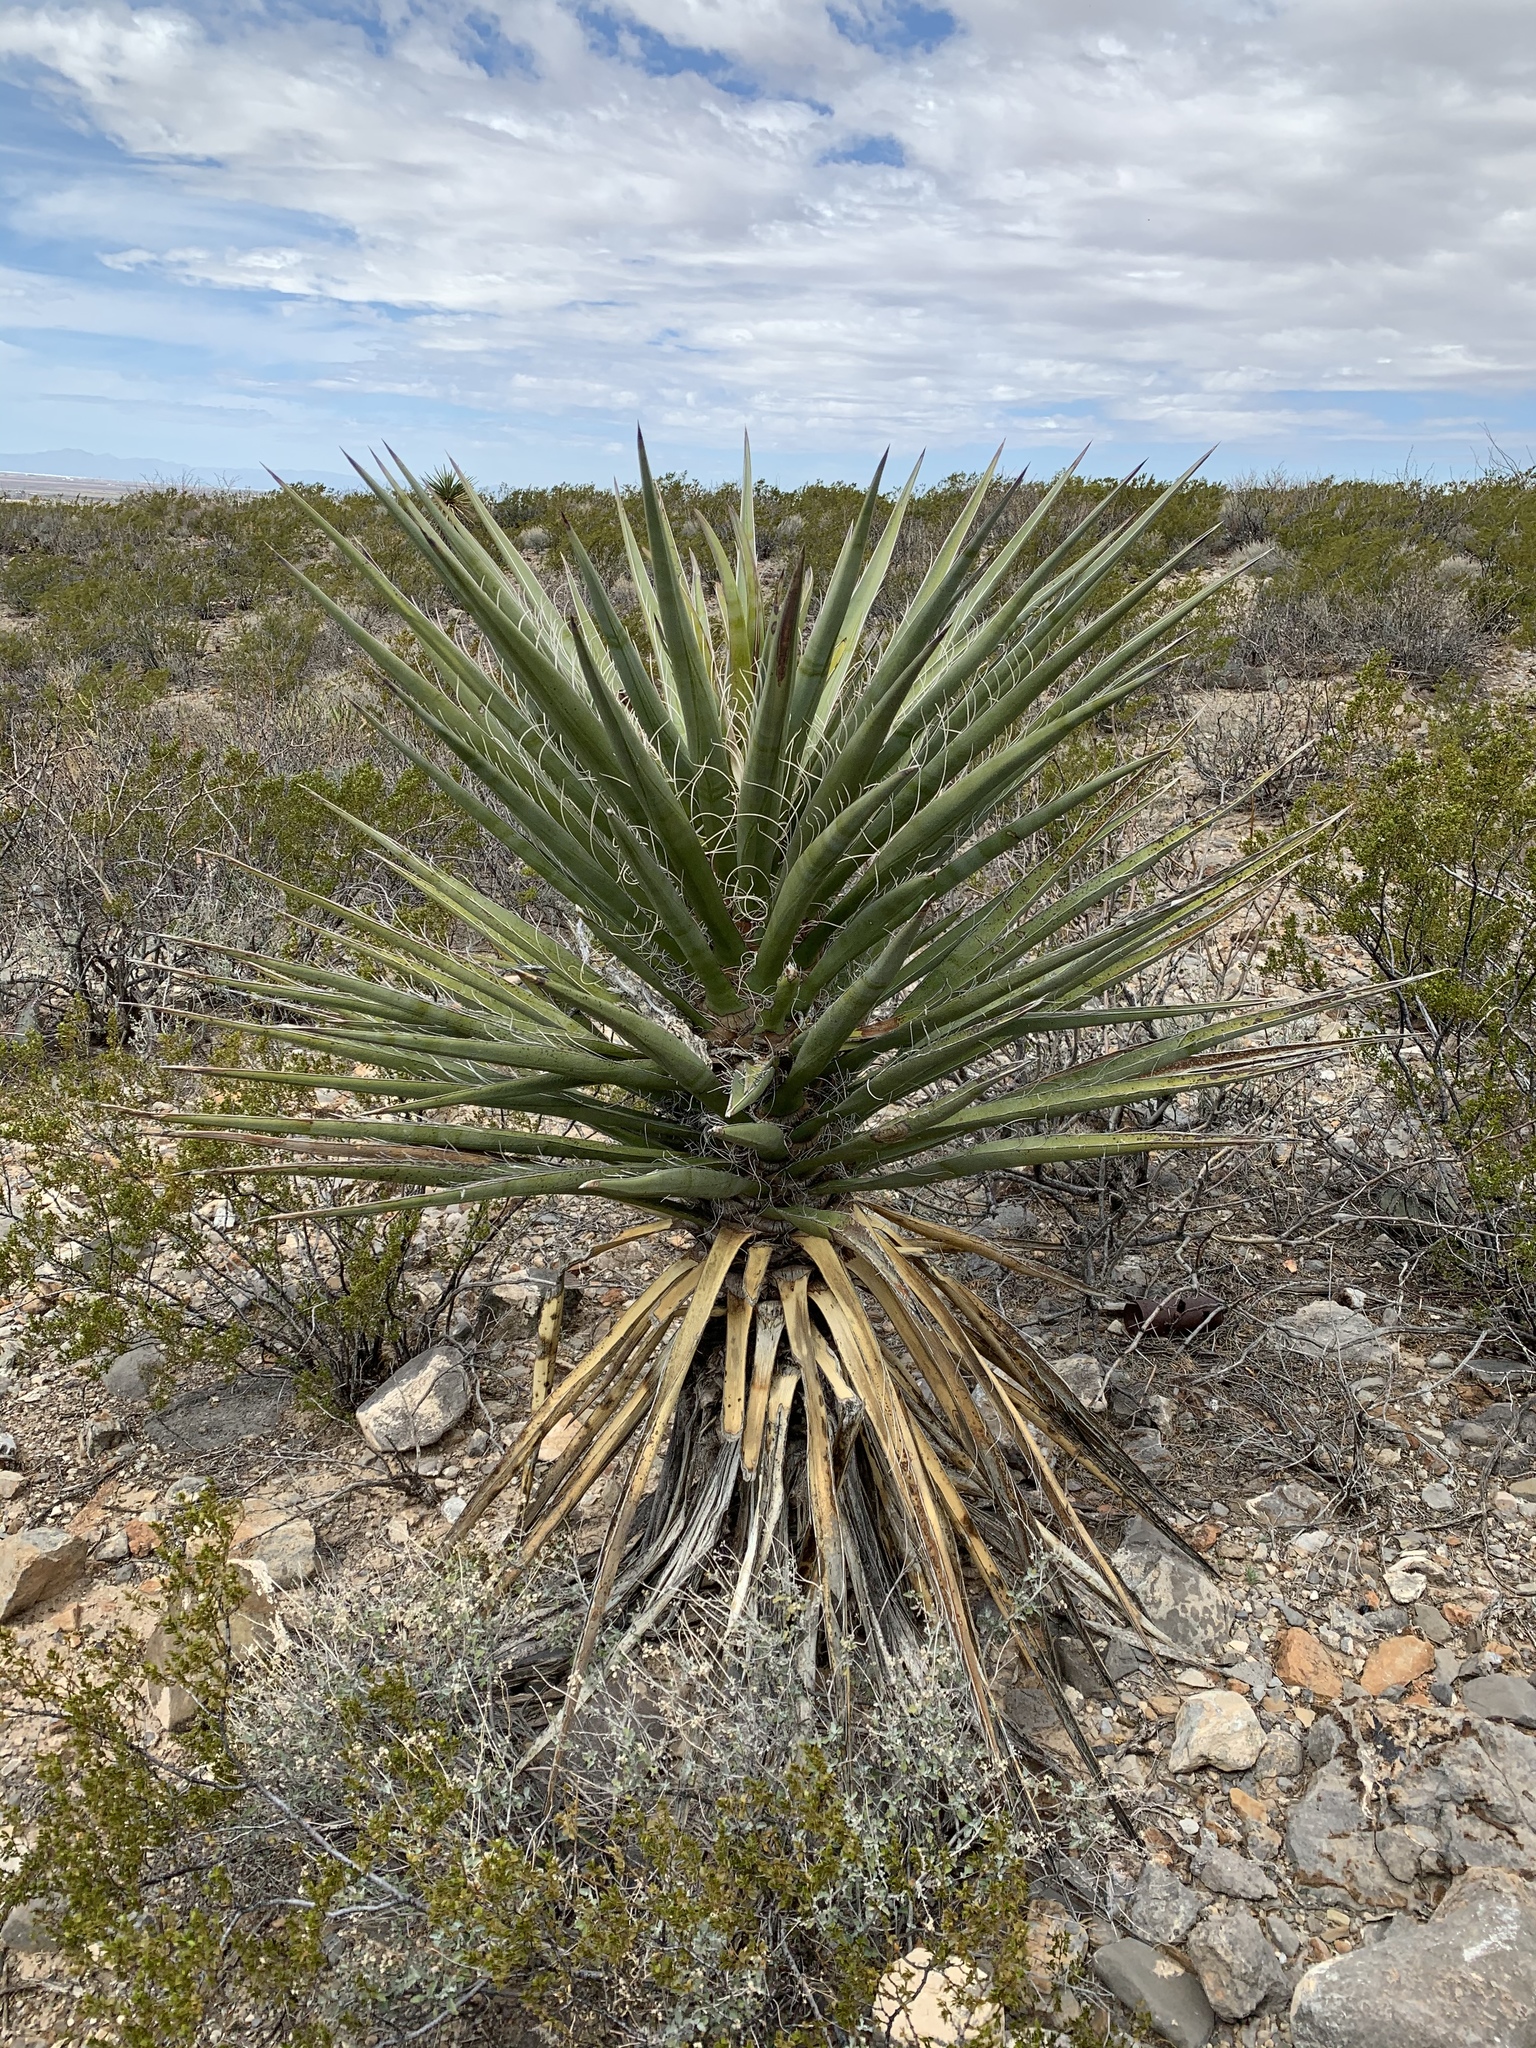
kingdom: Plantae
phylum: Tracheophyta
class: Liliopsida
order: Asparagales
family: Asparagaceae
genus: Yucca
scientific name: Yucca treculiana
